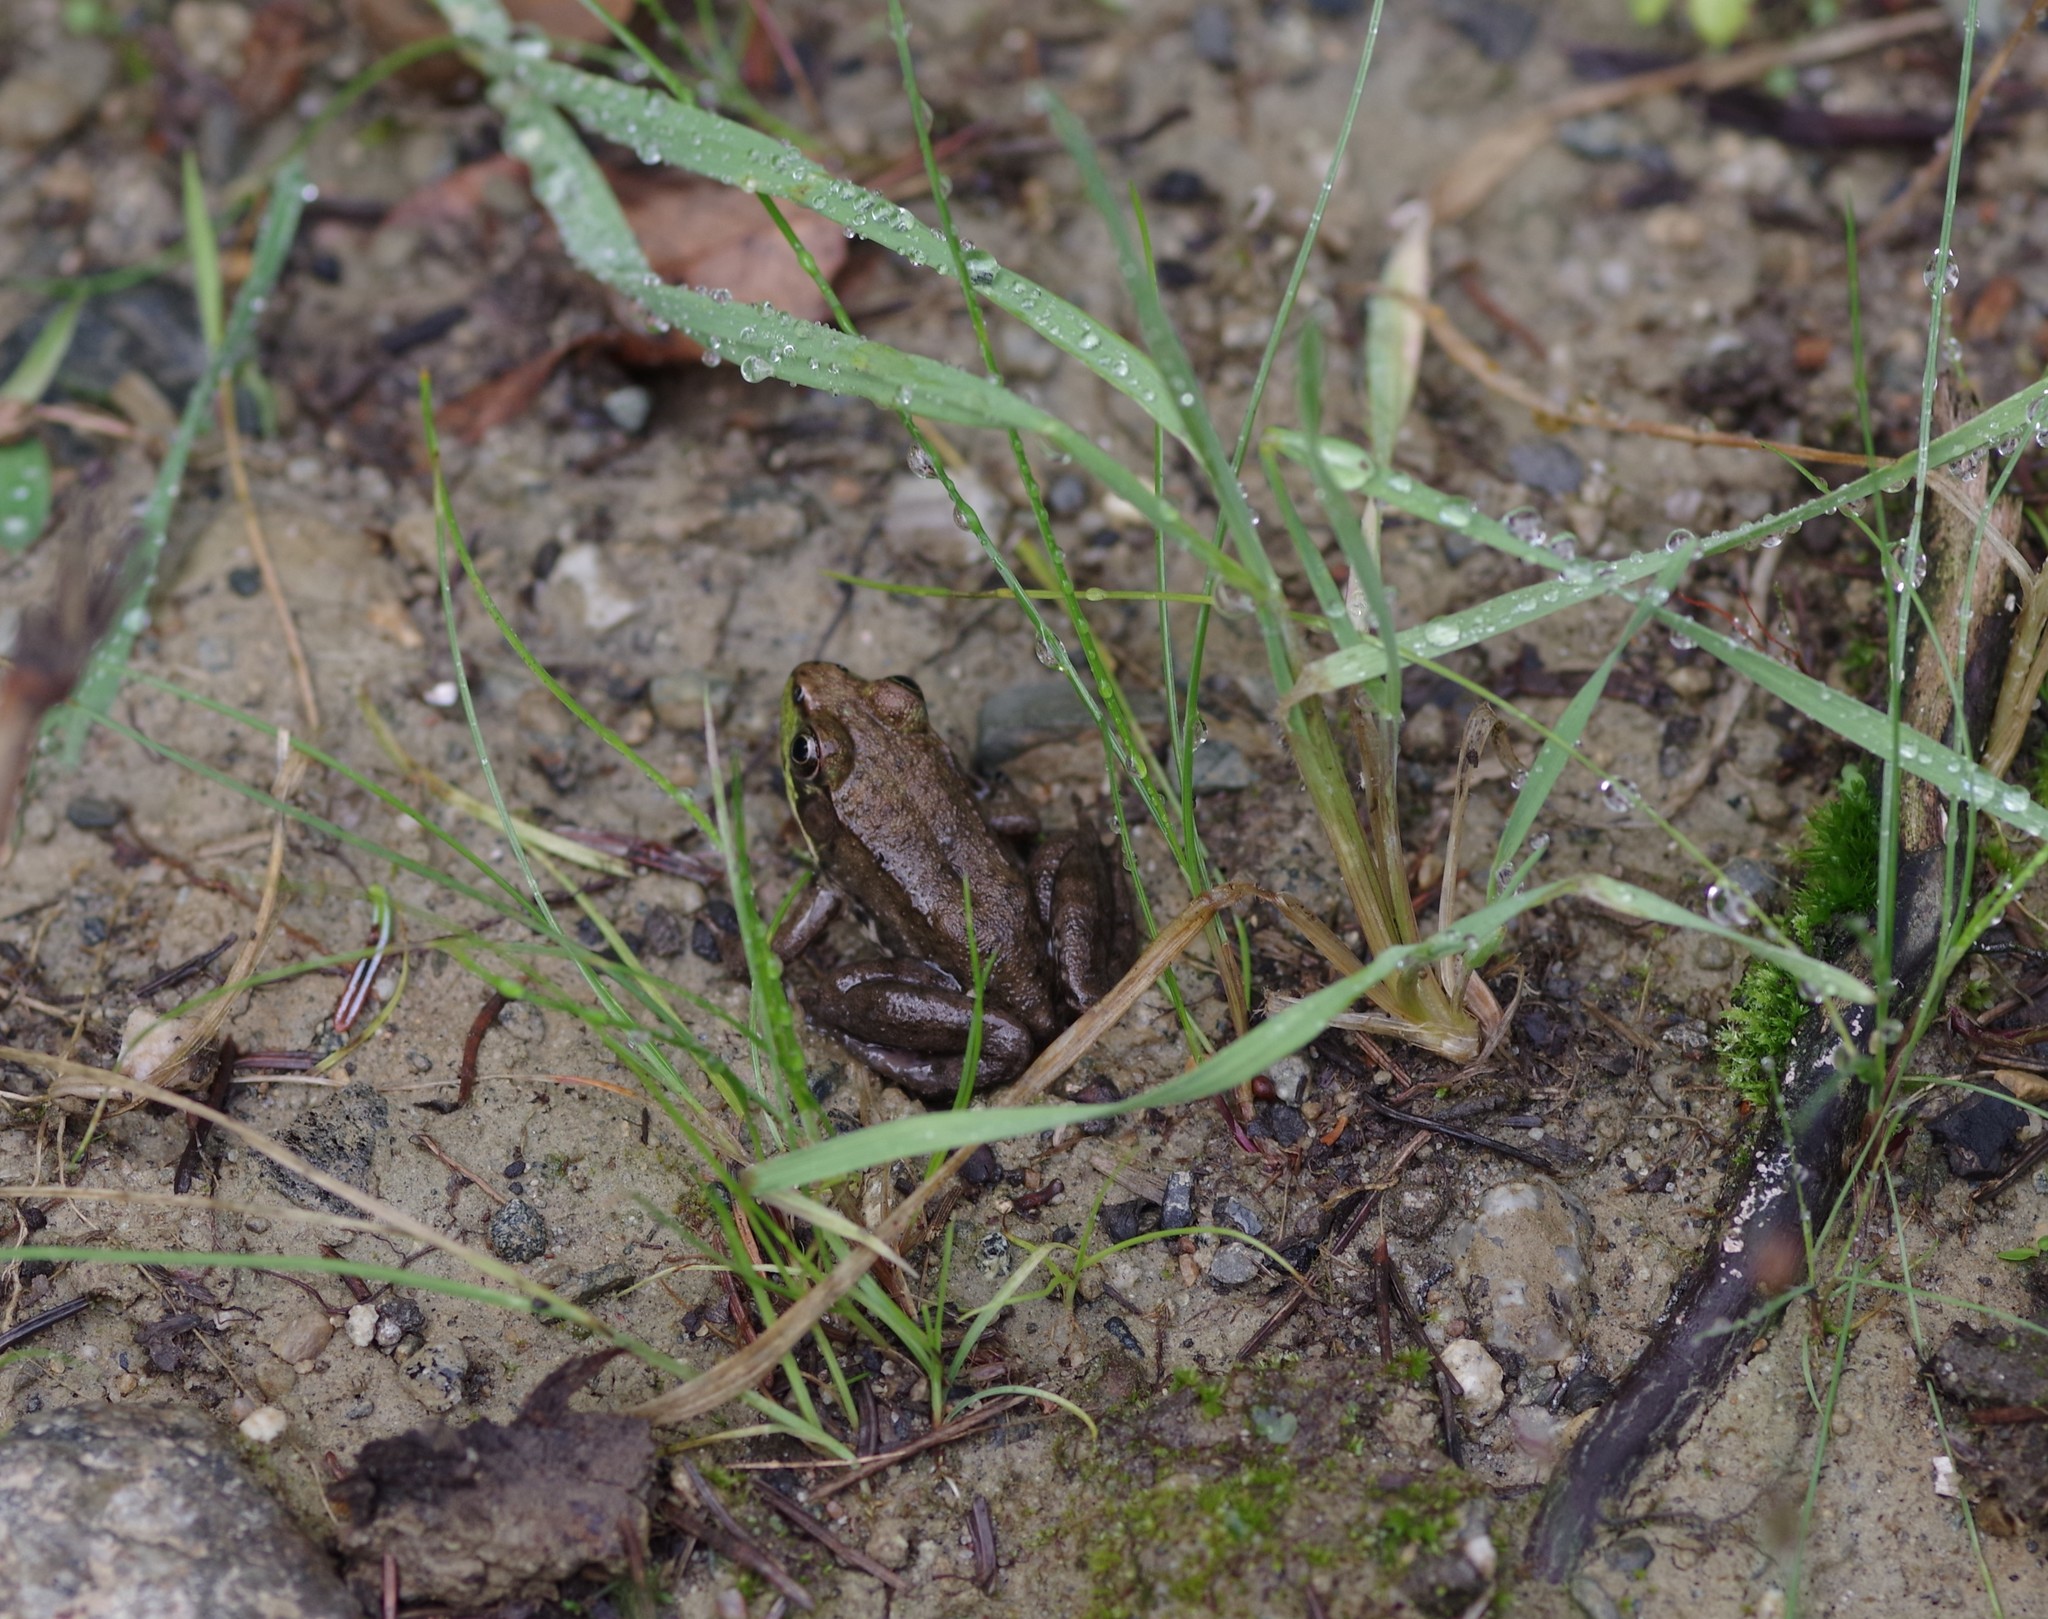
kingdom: Animalia
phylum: Chordata
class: Amphibia
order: Anura
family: Ranidae
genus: Lithobates
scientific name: Lithobates clamitans
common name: Green frog
